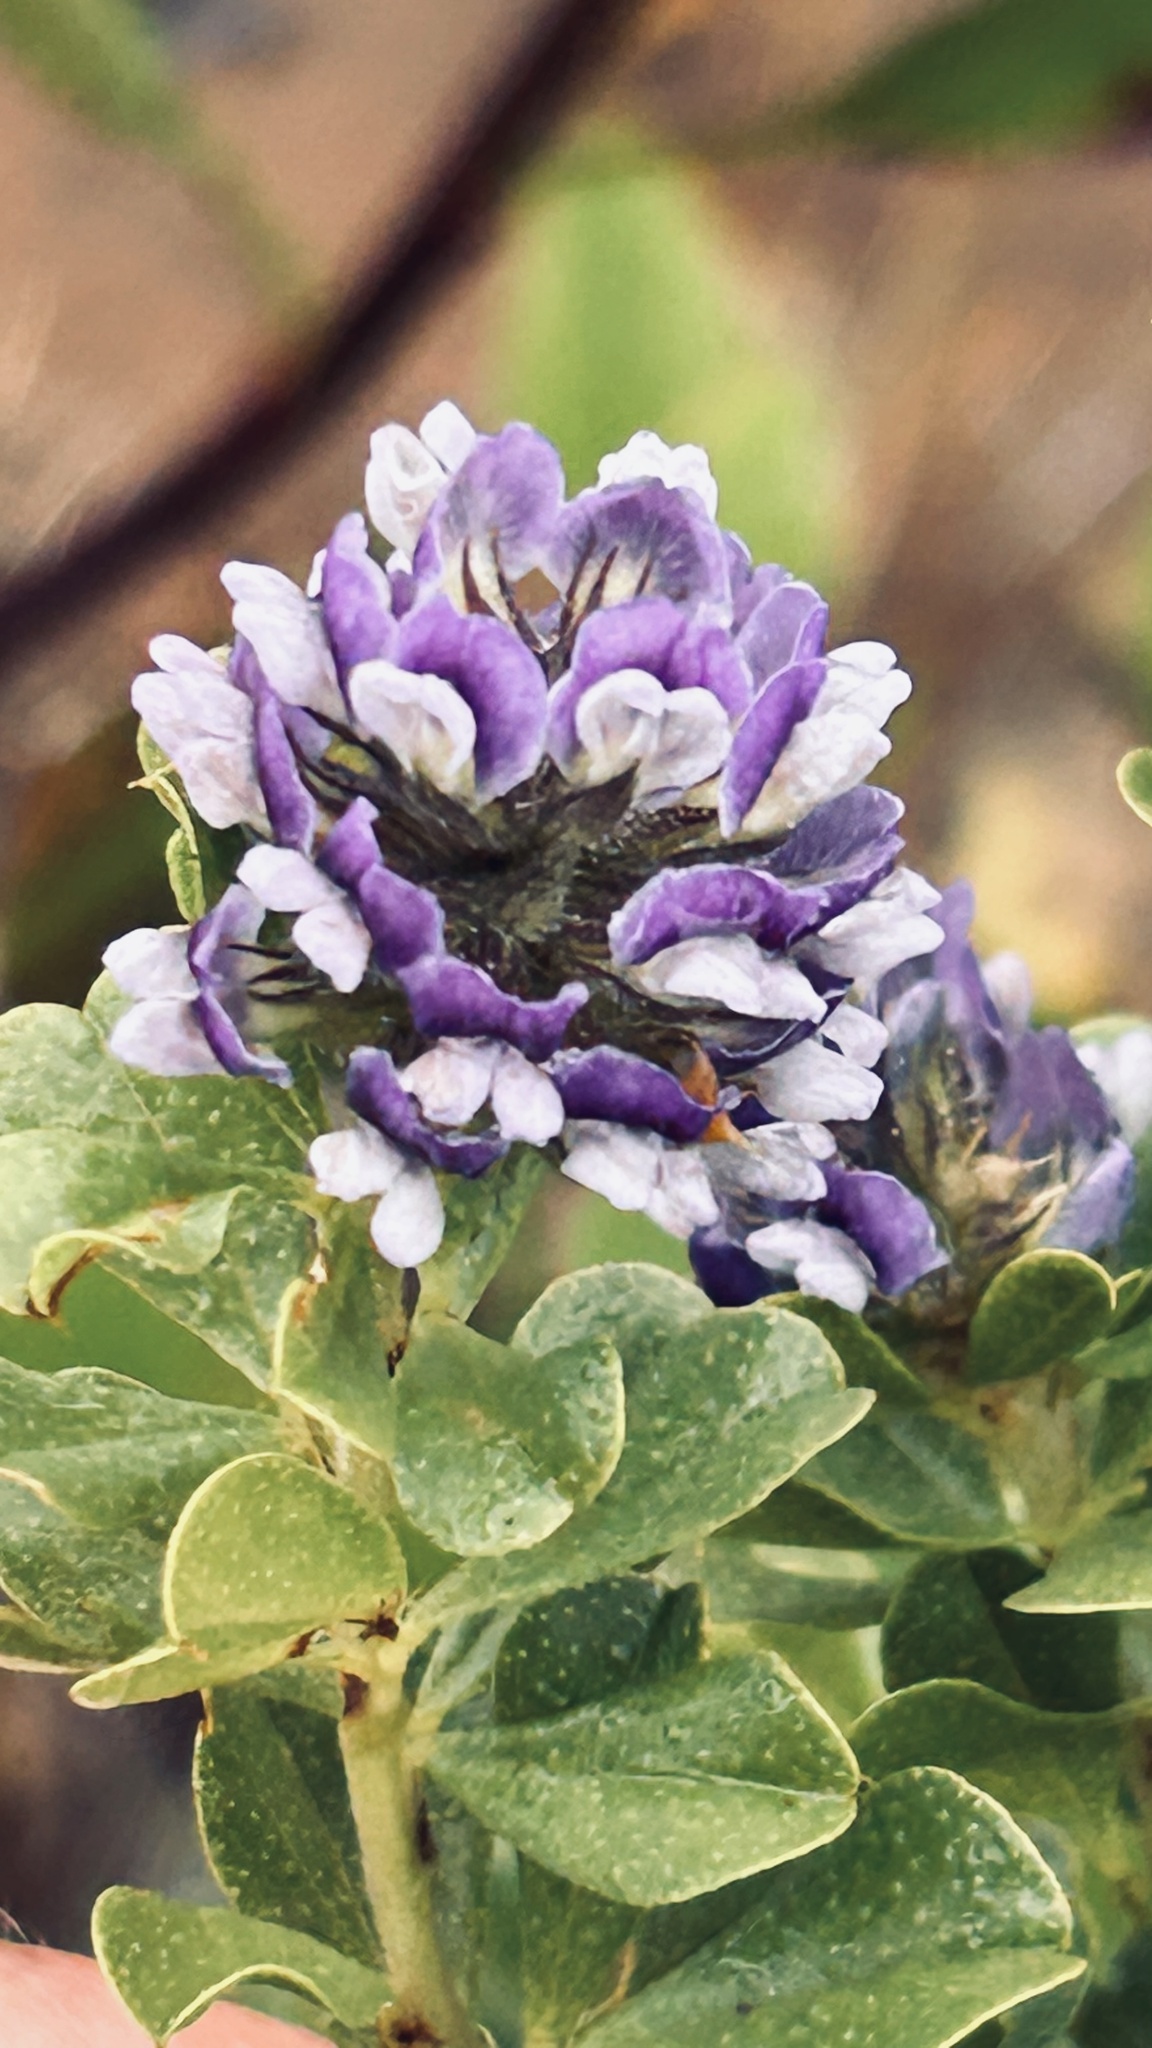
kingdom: Plantae
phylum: Tracheophyta
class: Magnoliopsida
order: Fabales
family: Fabaceae
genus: Psoralea
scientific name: Psoralea sabulosa
